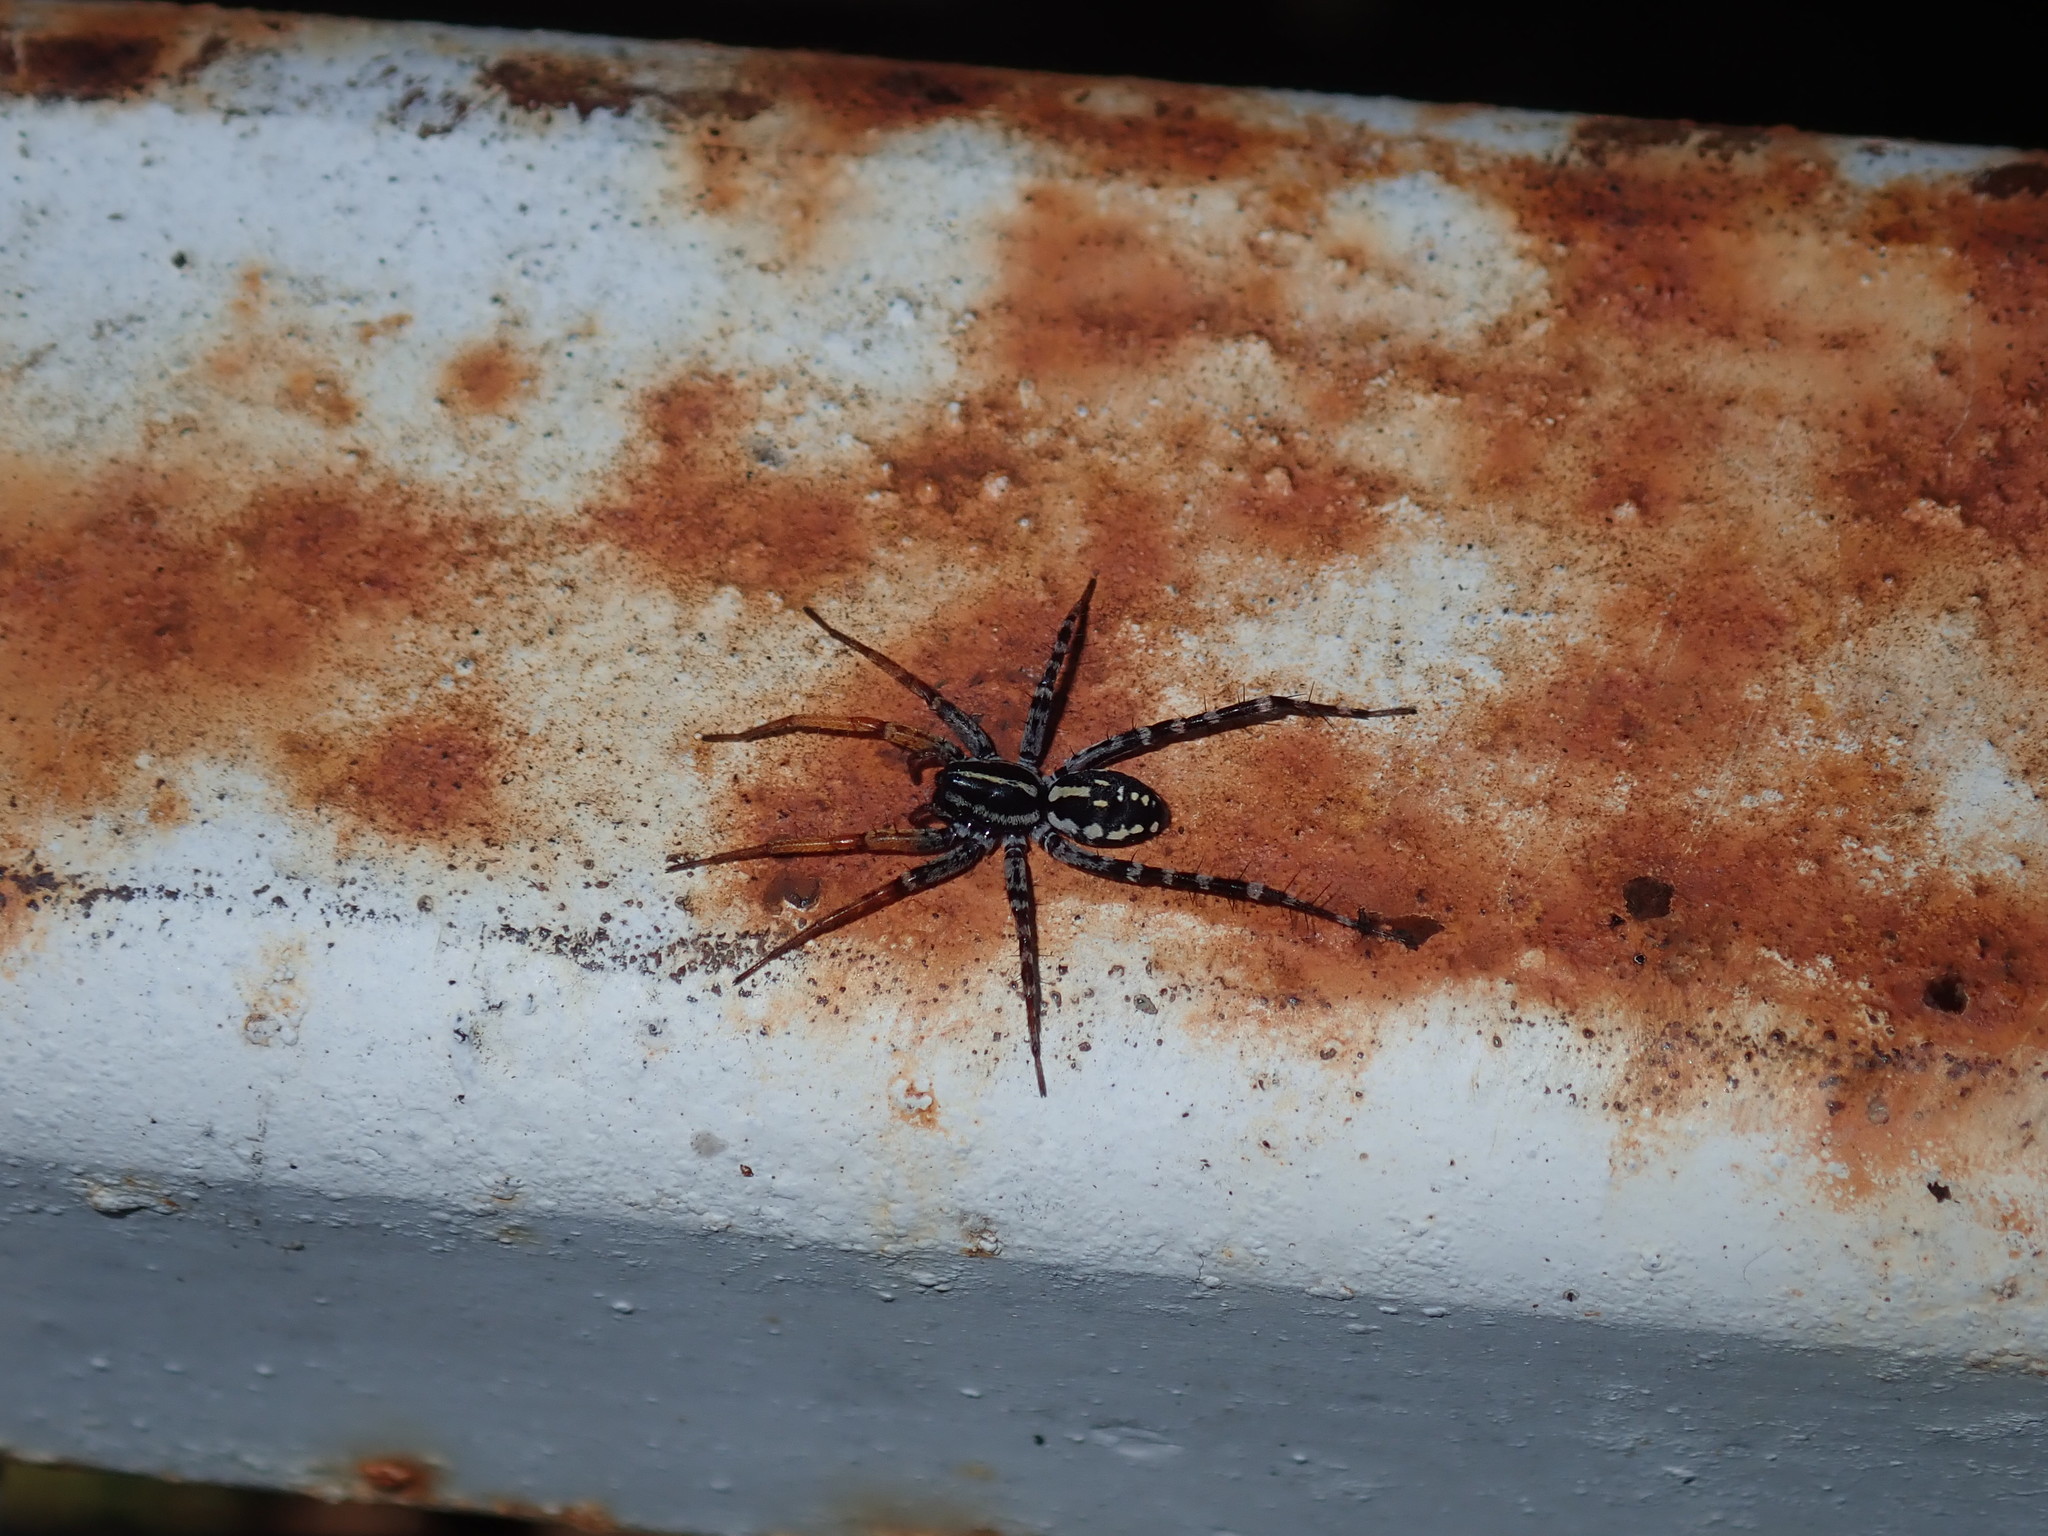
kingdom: Animalia
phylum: Arthropoda
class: Arachnida
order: Araneae
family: Corinnidae
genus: Nyssus
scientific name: Nyssus coloripes
